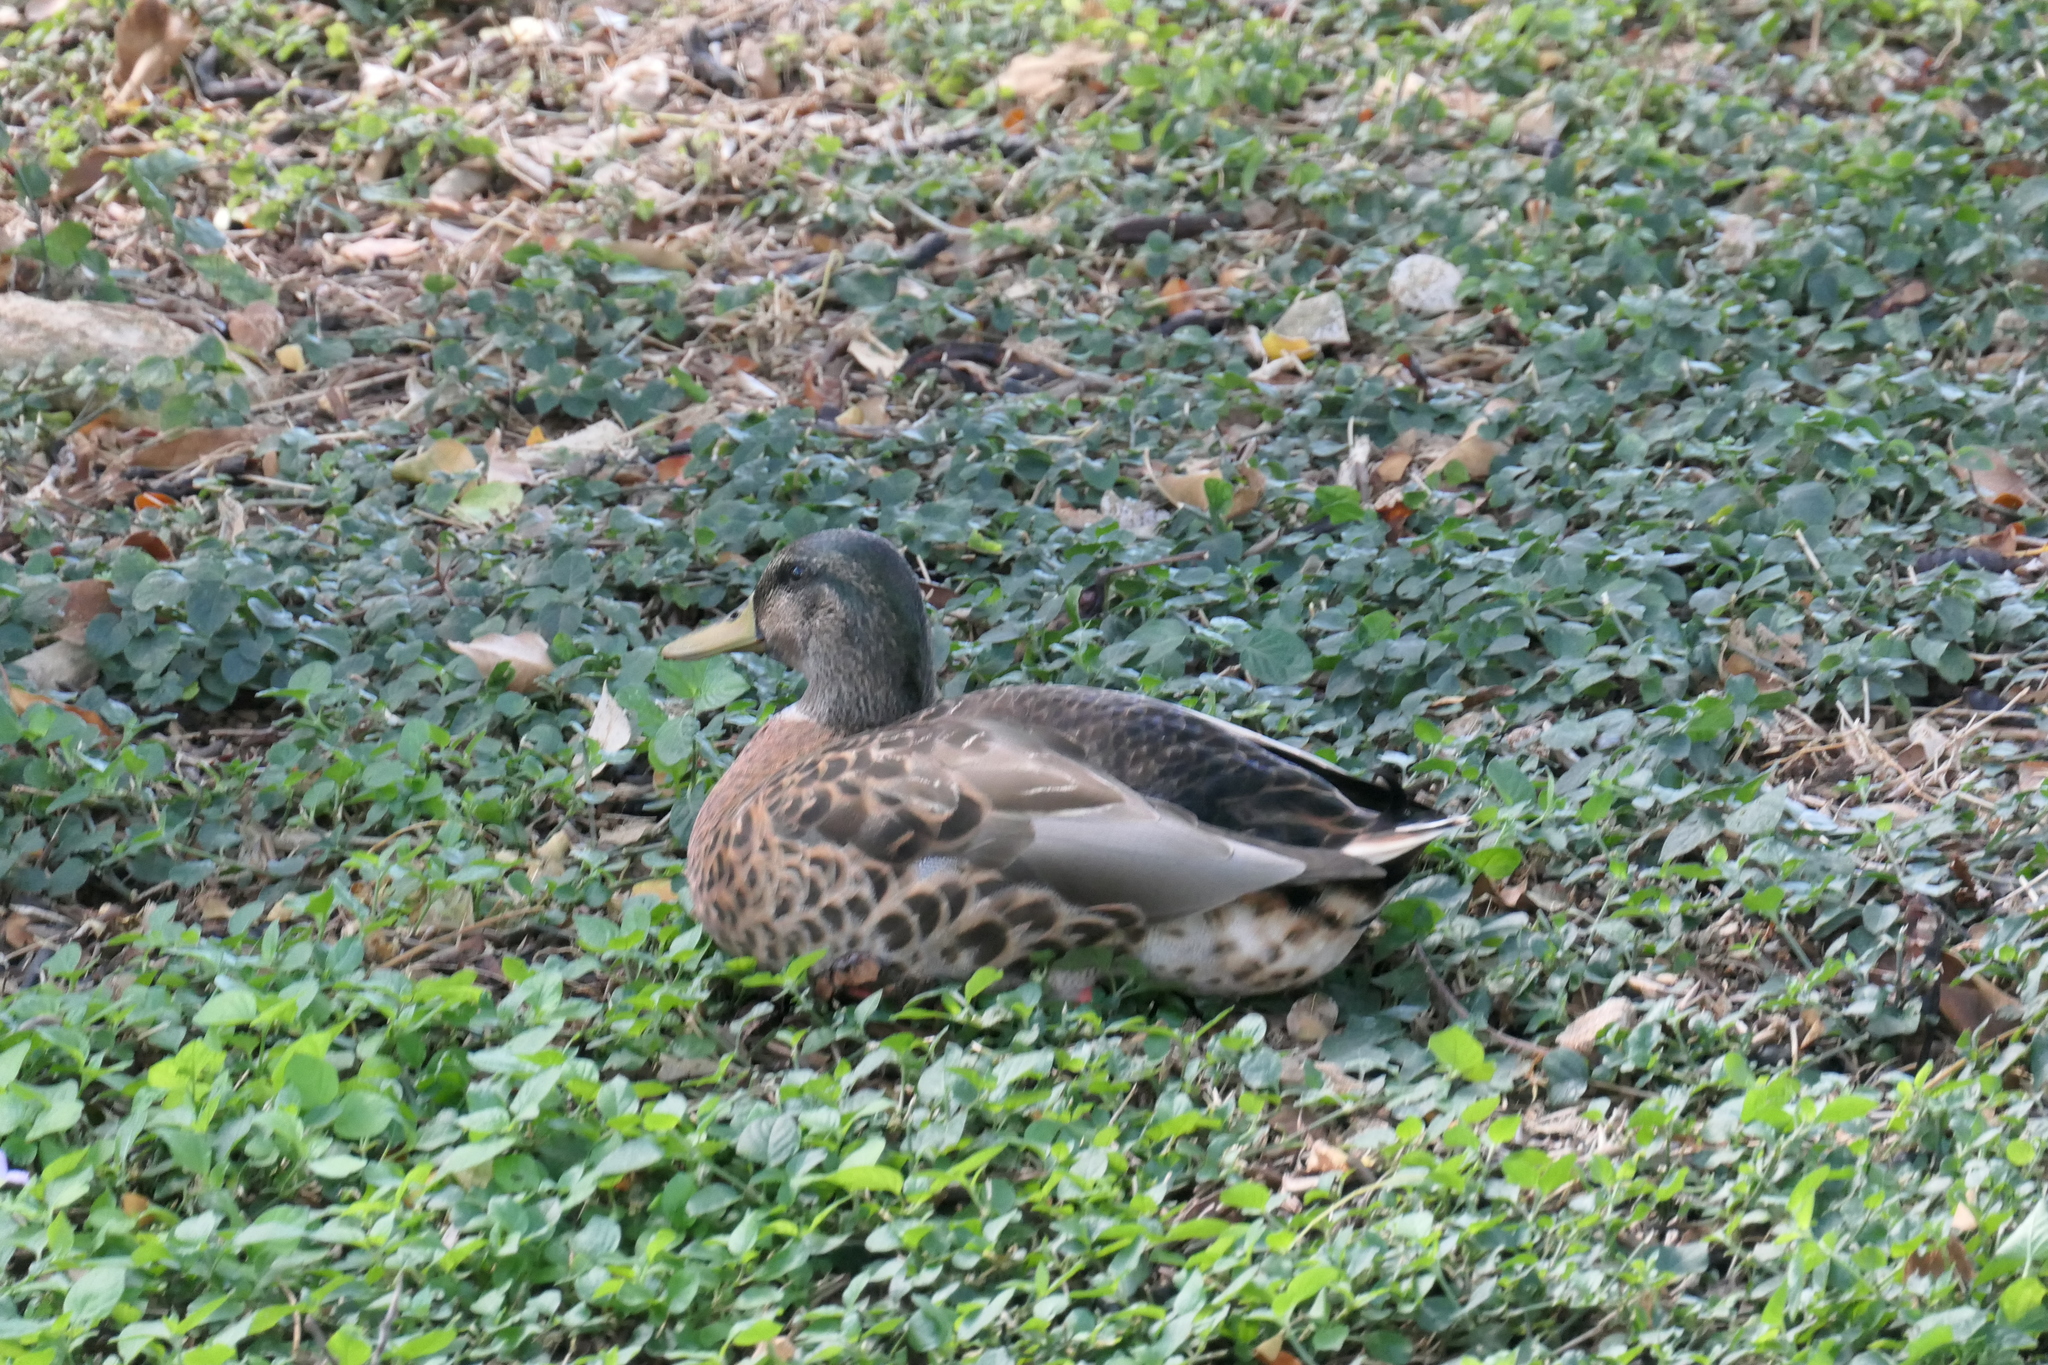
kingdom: Animalia
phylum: Chordata
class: Aves
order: Anseriformes
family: Anatidae
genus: Anas
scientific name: Anas
